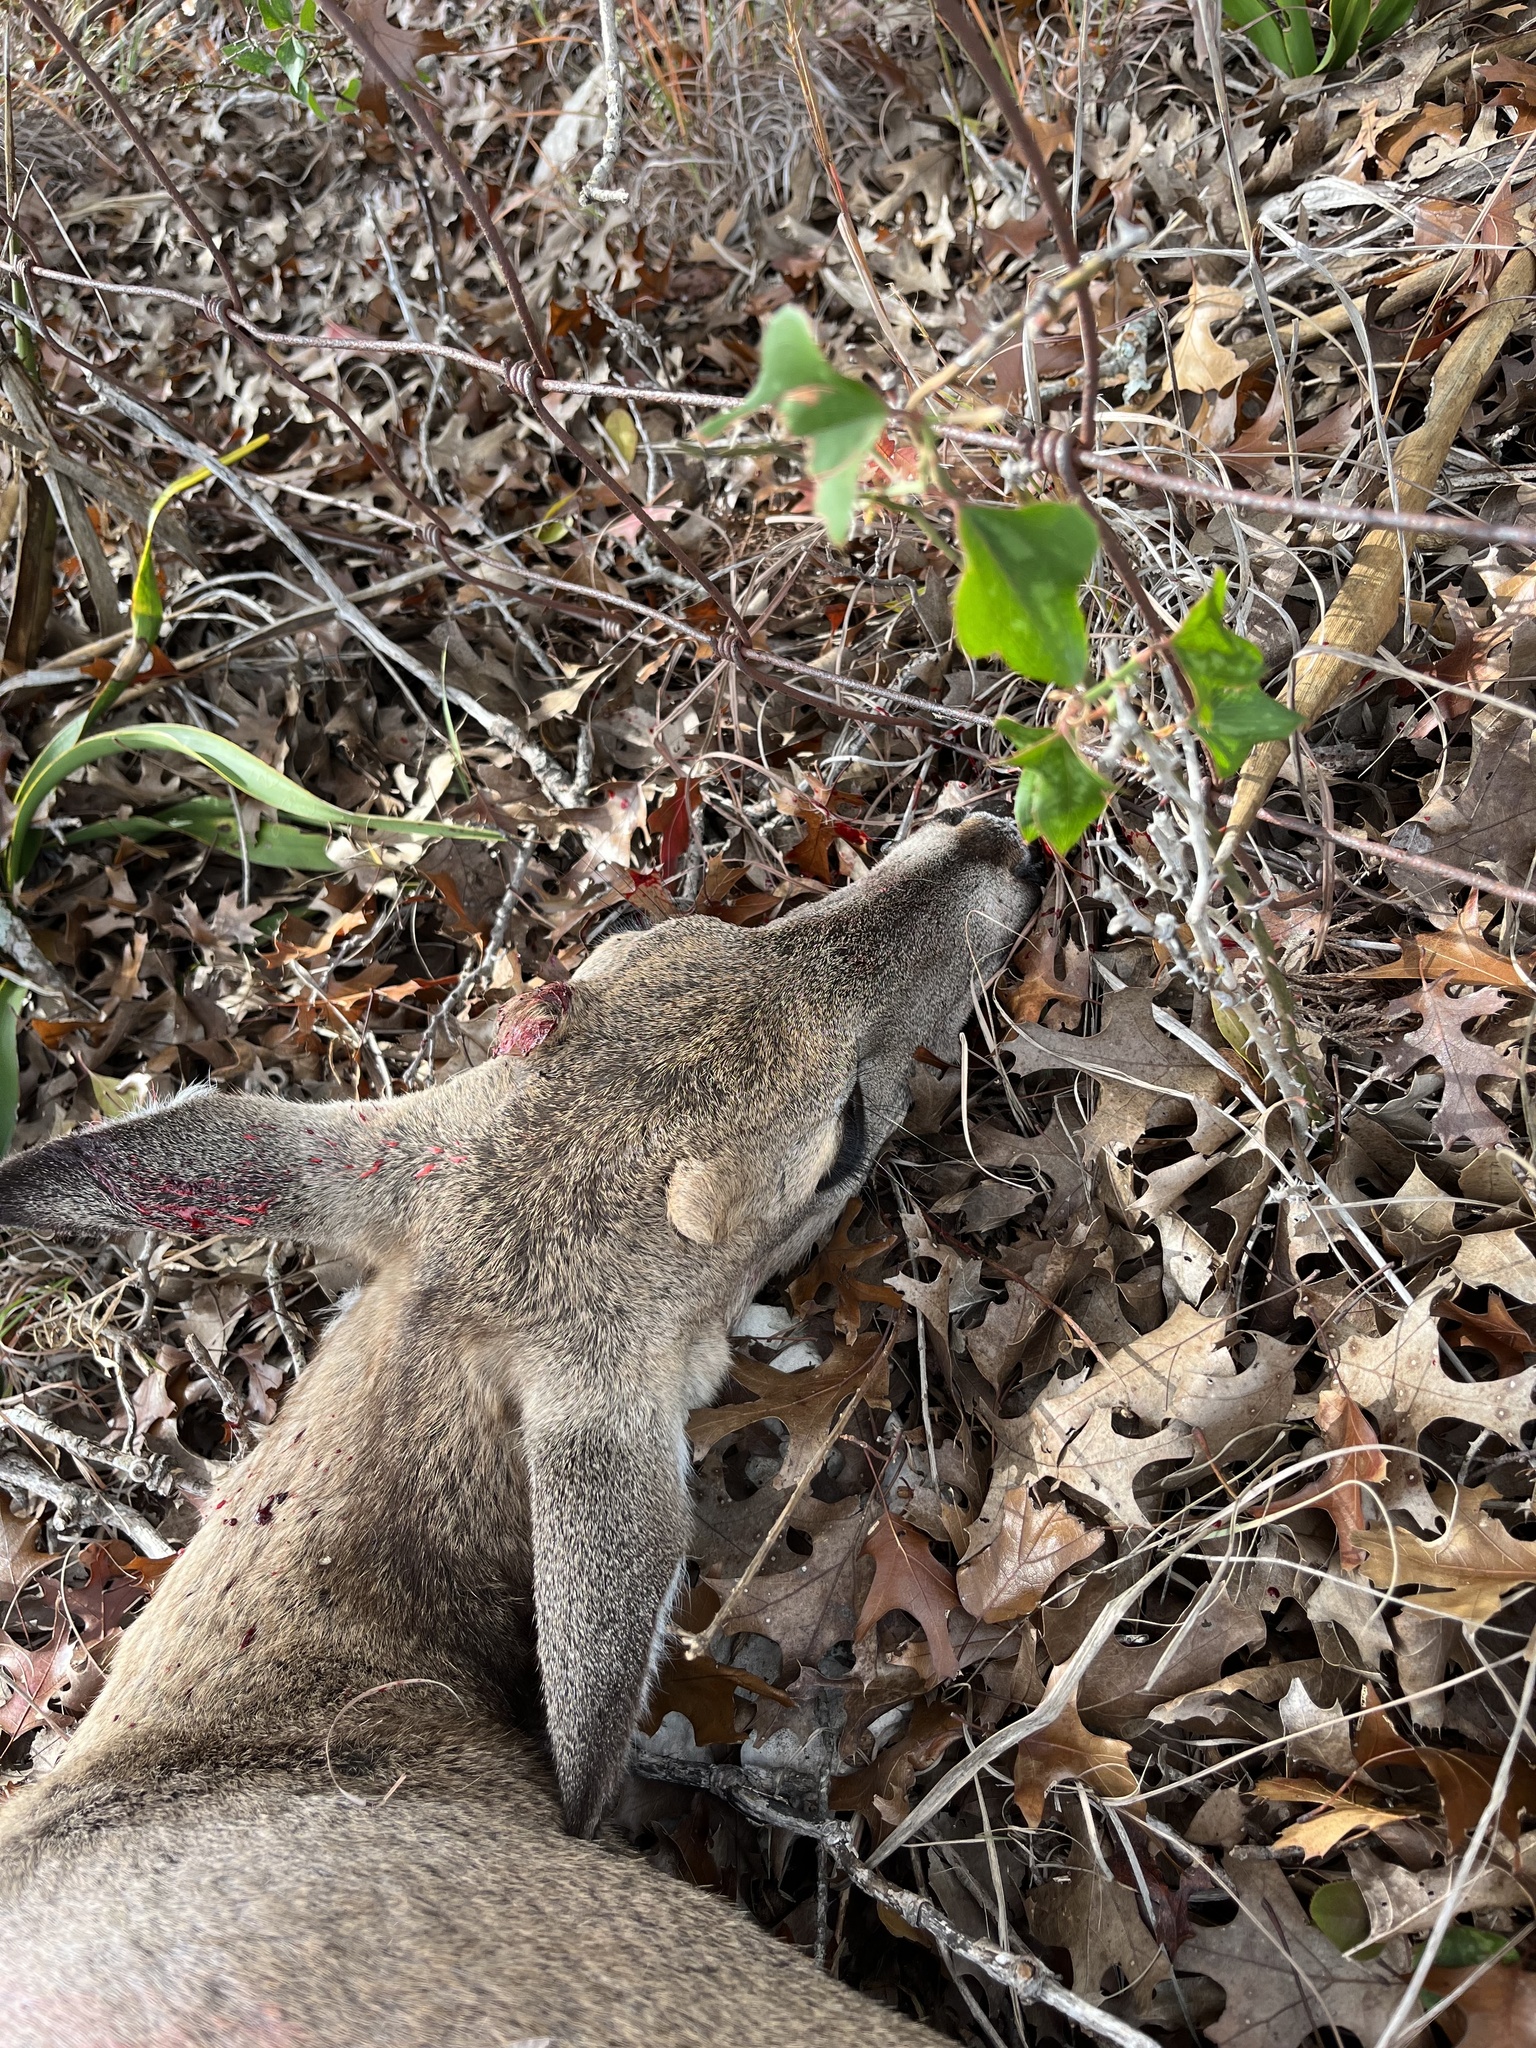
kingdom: Animalia
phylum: Chordata
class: Mammalia
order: Artiodactyla
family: Cervidae
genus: Odocoileus
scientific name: Odocoileus virginianus
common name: White-tailed deer
